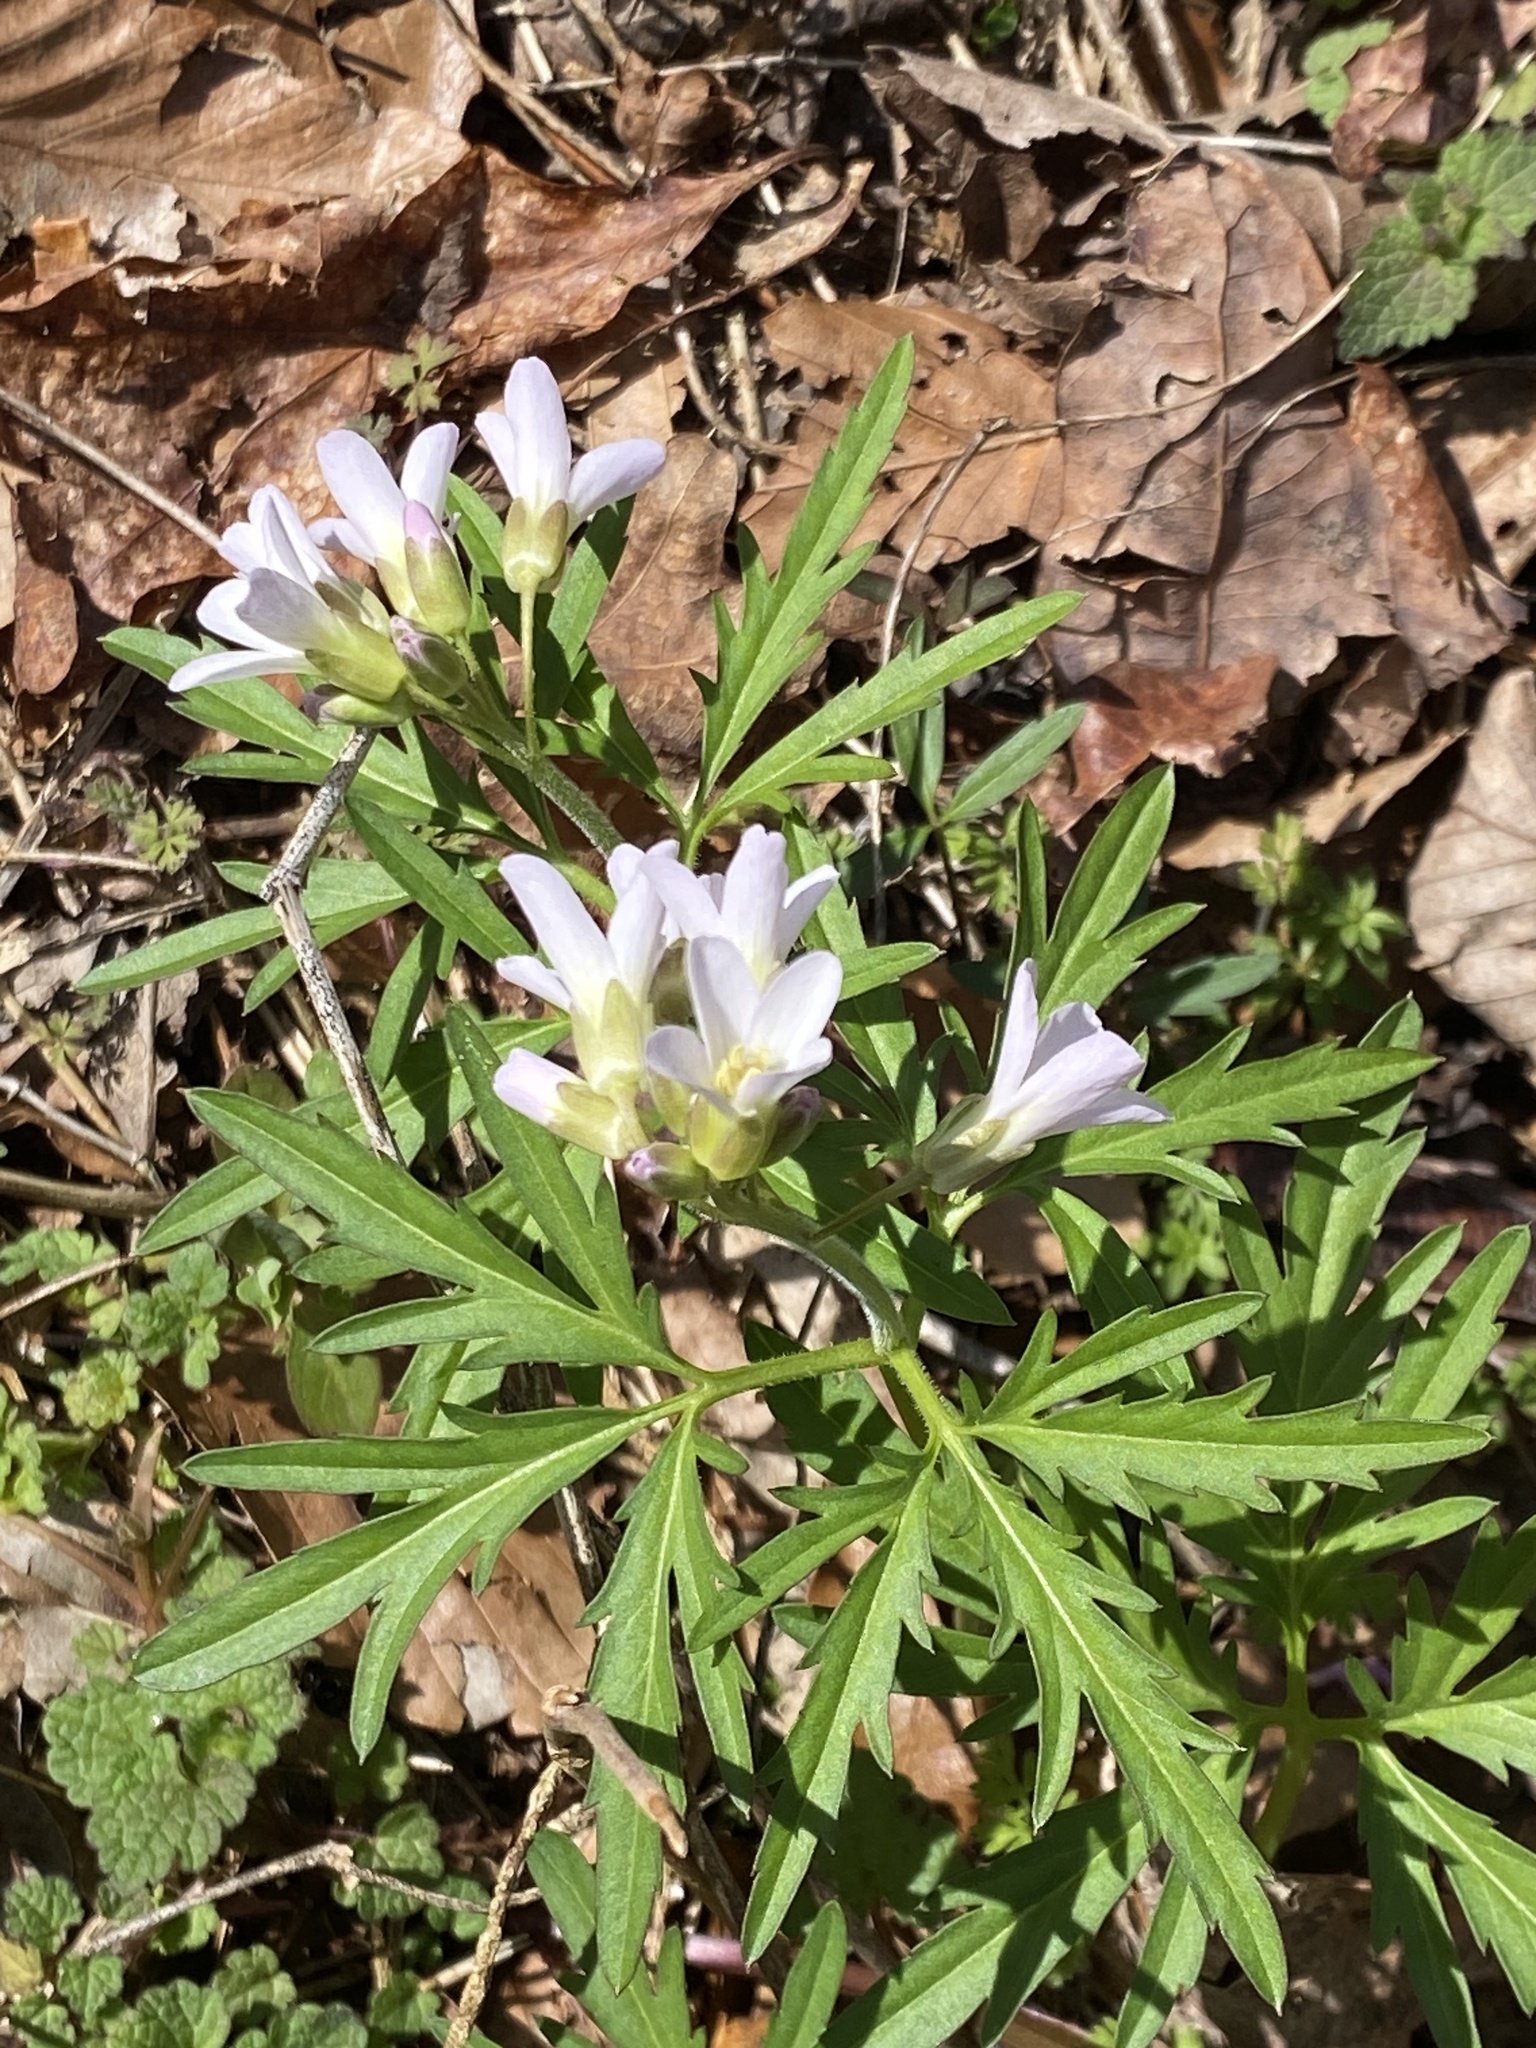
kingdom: Plantae
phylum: Tracheophyta
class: Magnoliopsida
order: Brassicales
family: Brassicaceae
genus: Cardamine
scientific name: Cardamine concatenata
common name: Cut-leaf toothcup
